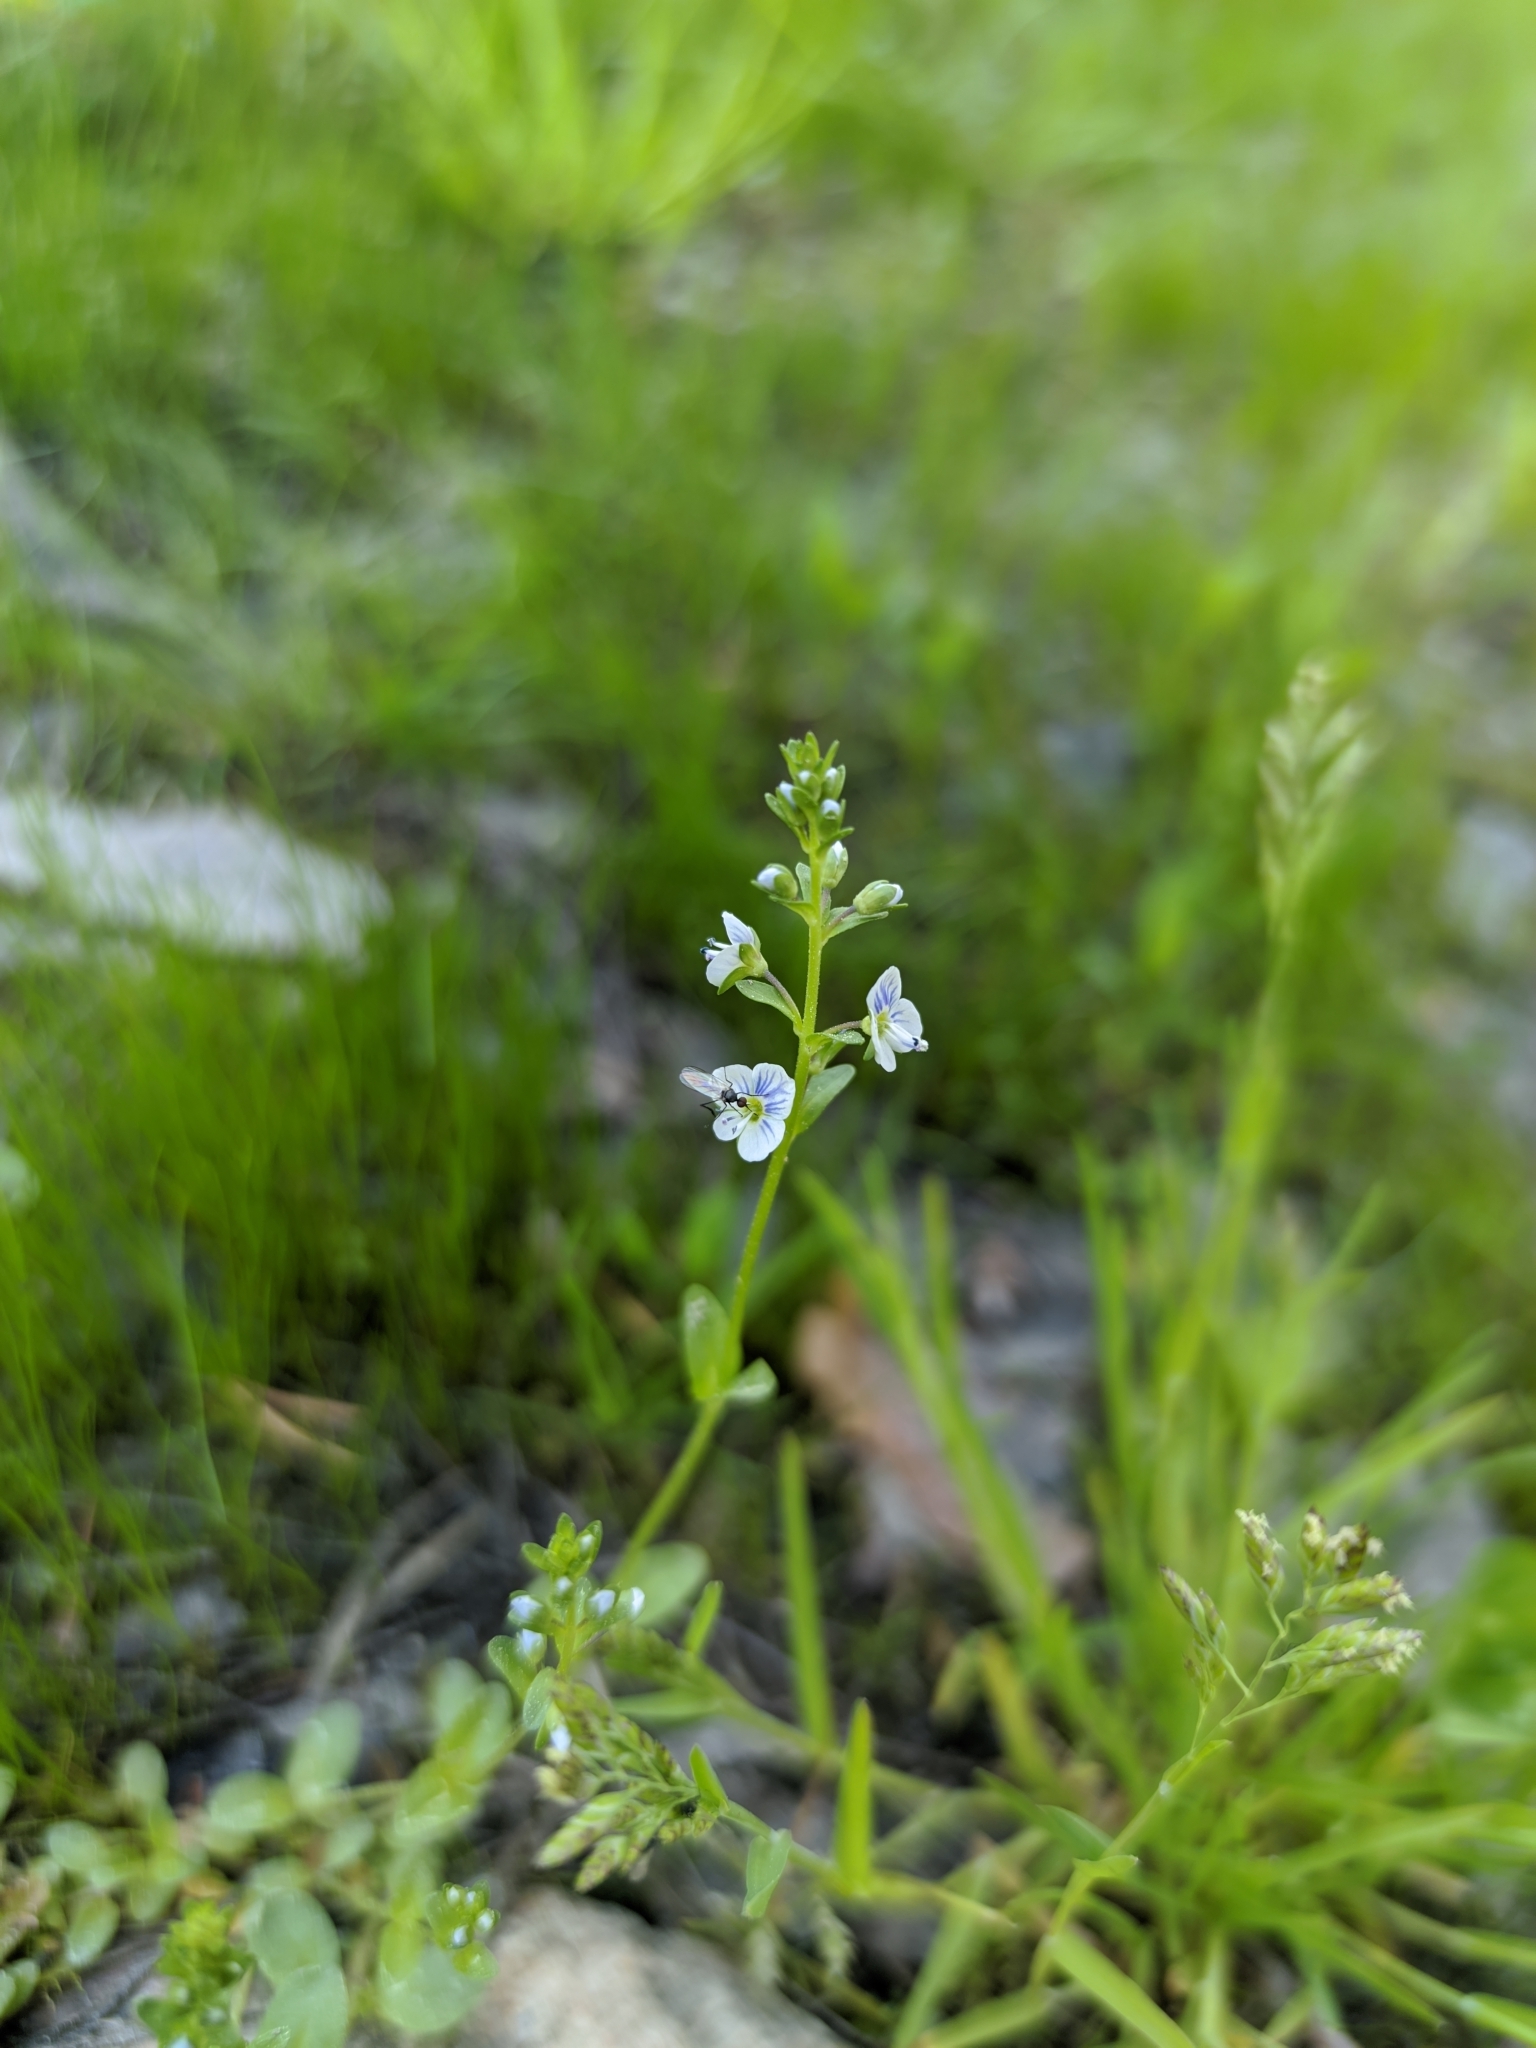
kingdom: Plantae
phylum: Tracheophyta
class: Magnoliopsida
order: Lamiales
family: Plantaginaceae
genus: Veronica
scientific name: Veronica serpyllifolia
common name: Thyme-leaved speedwell
